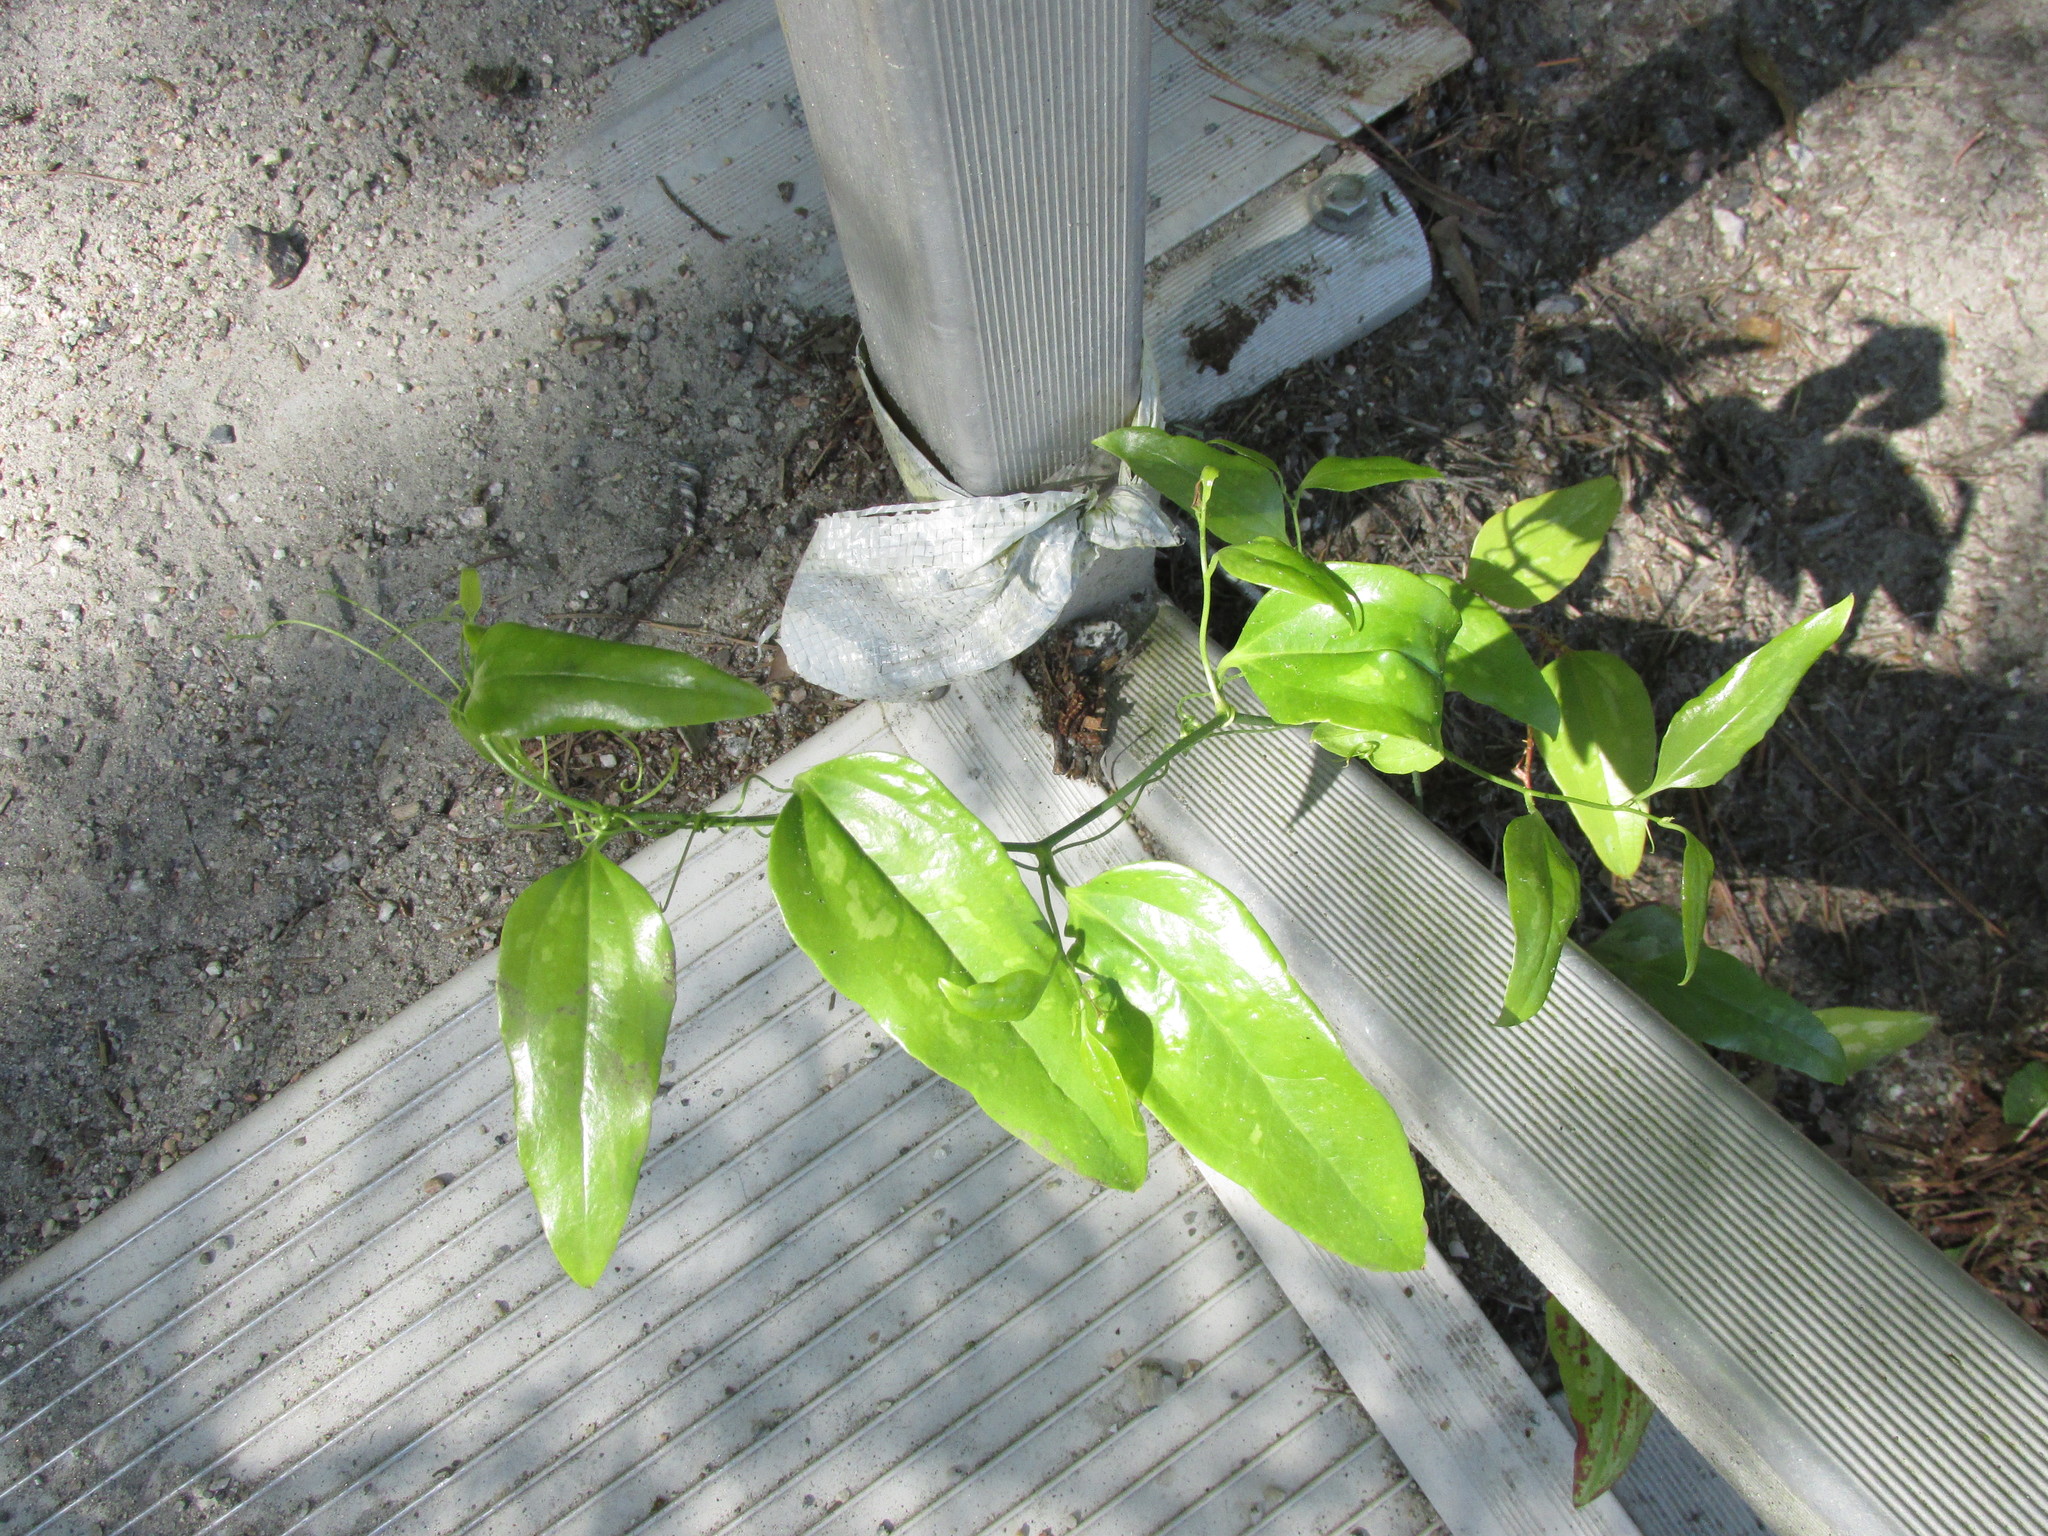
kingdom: Plantae
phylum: Tracheophyta
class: Liliopsida
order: Liliales
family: Smilacaceae
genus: Smilax
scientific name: Smilax maritima
